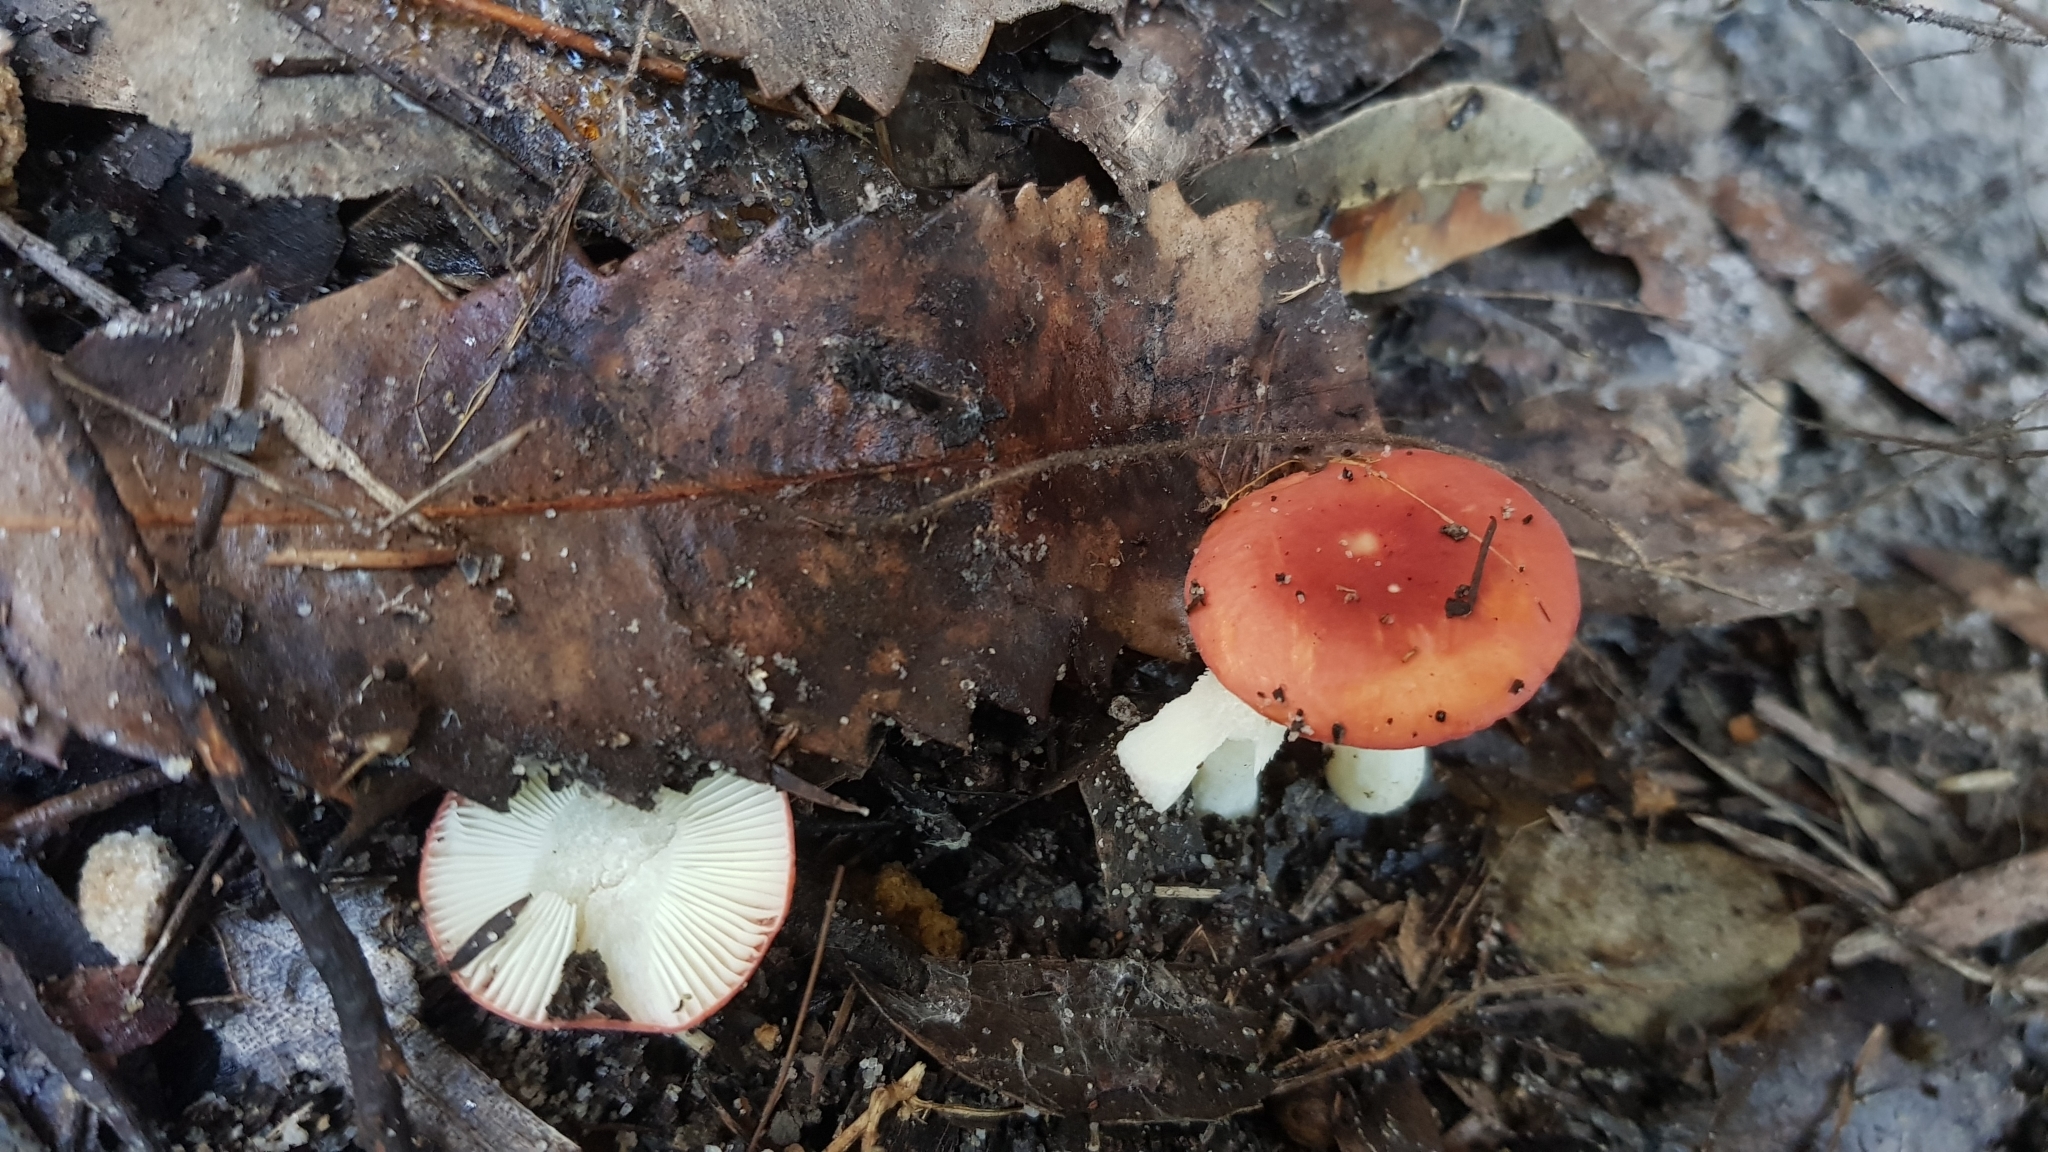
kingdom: Fungi
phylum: Basidiomycota
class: Agaricomycetes
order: Russulales
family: Russulaceae
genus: Russula
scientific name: Russula persanguinea
